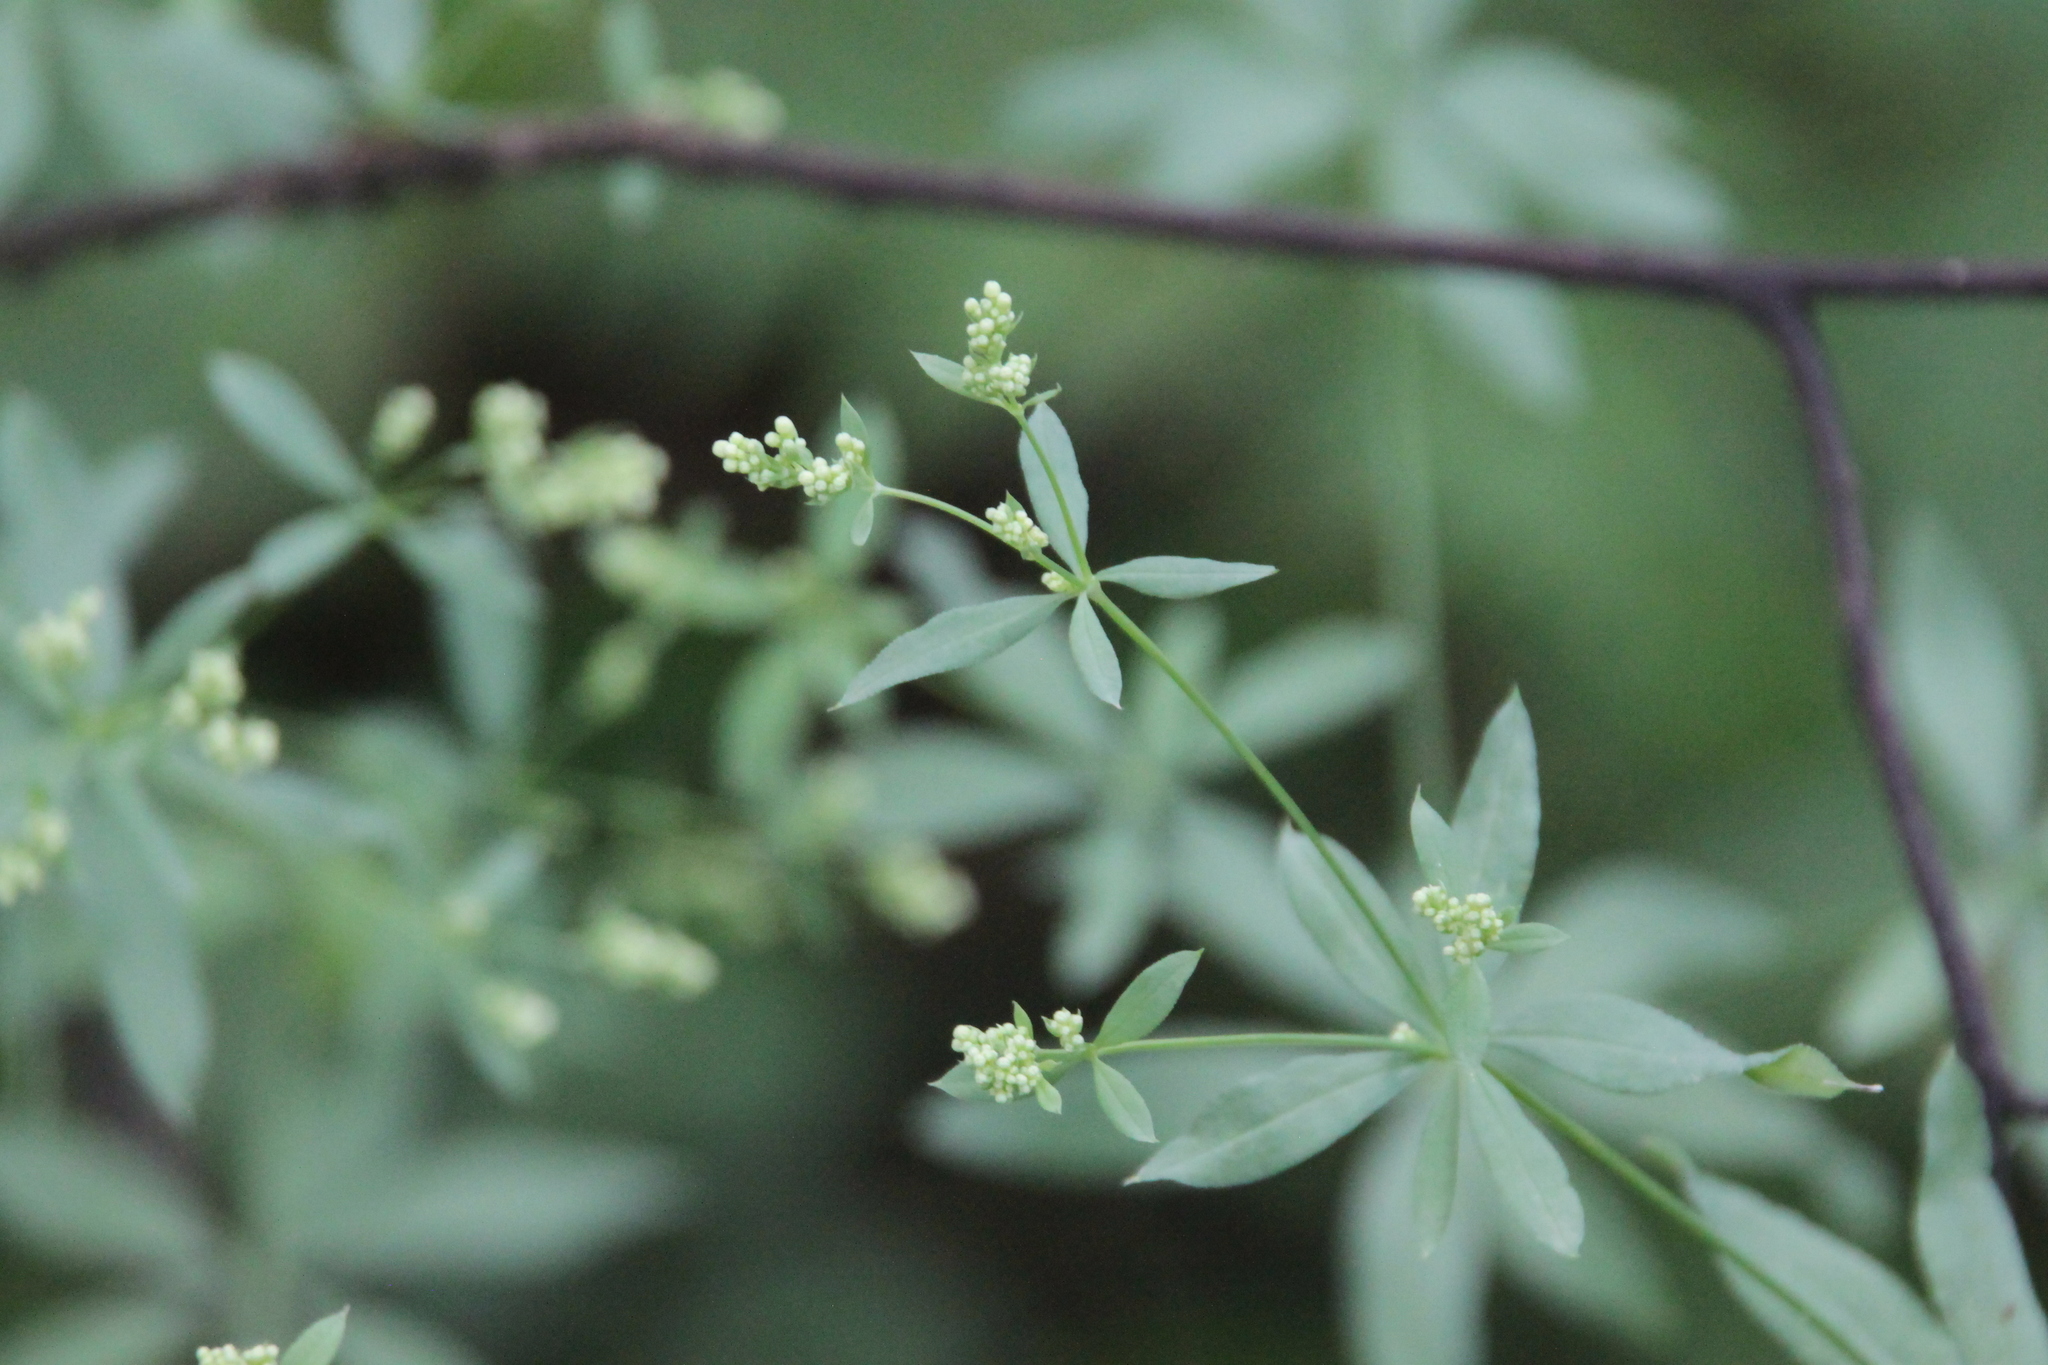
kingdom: Plantae
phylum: Tracheophyta
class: Magnoliopsida
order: Gentianales
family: Rubiaceae
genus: Galium
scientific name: Galium intermedium
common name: Bedstraw
